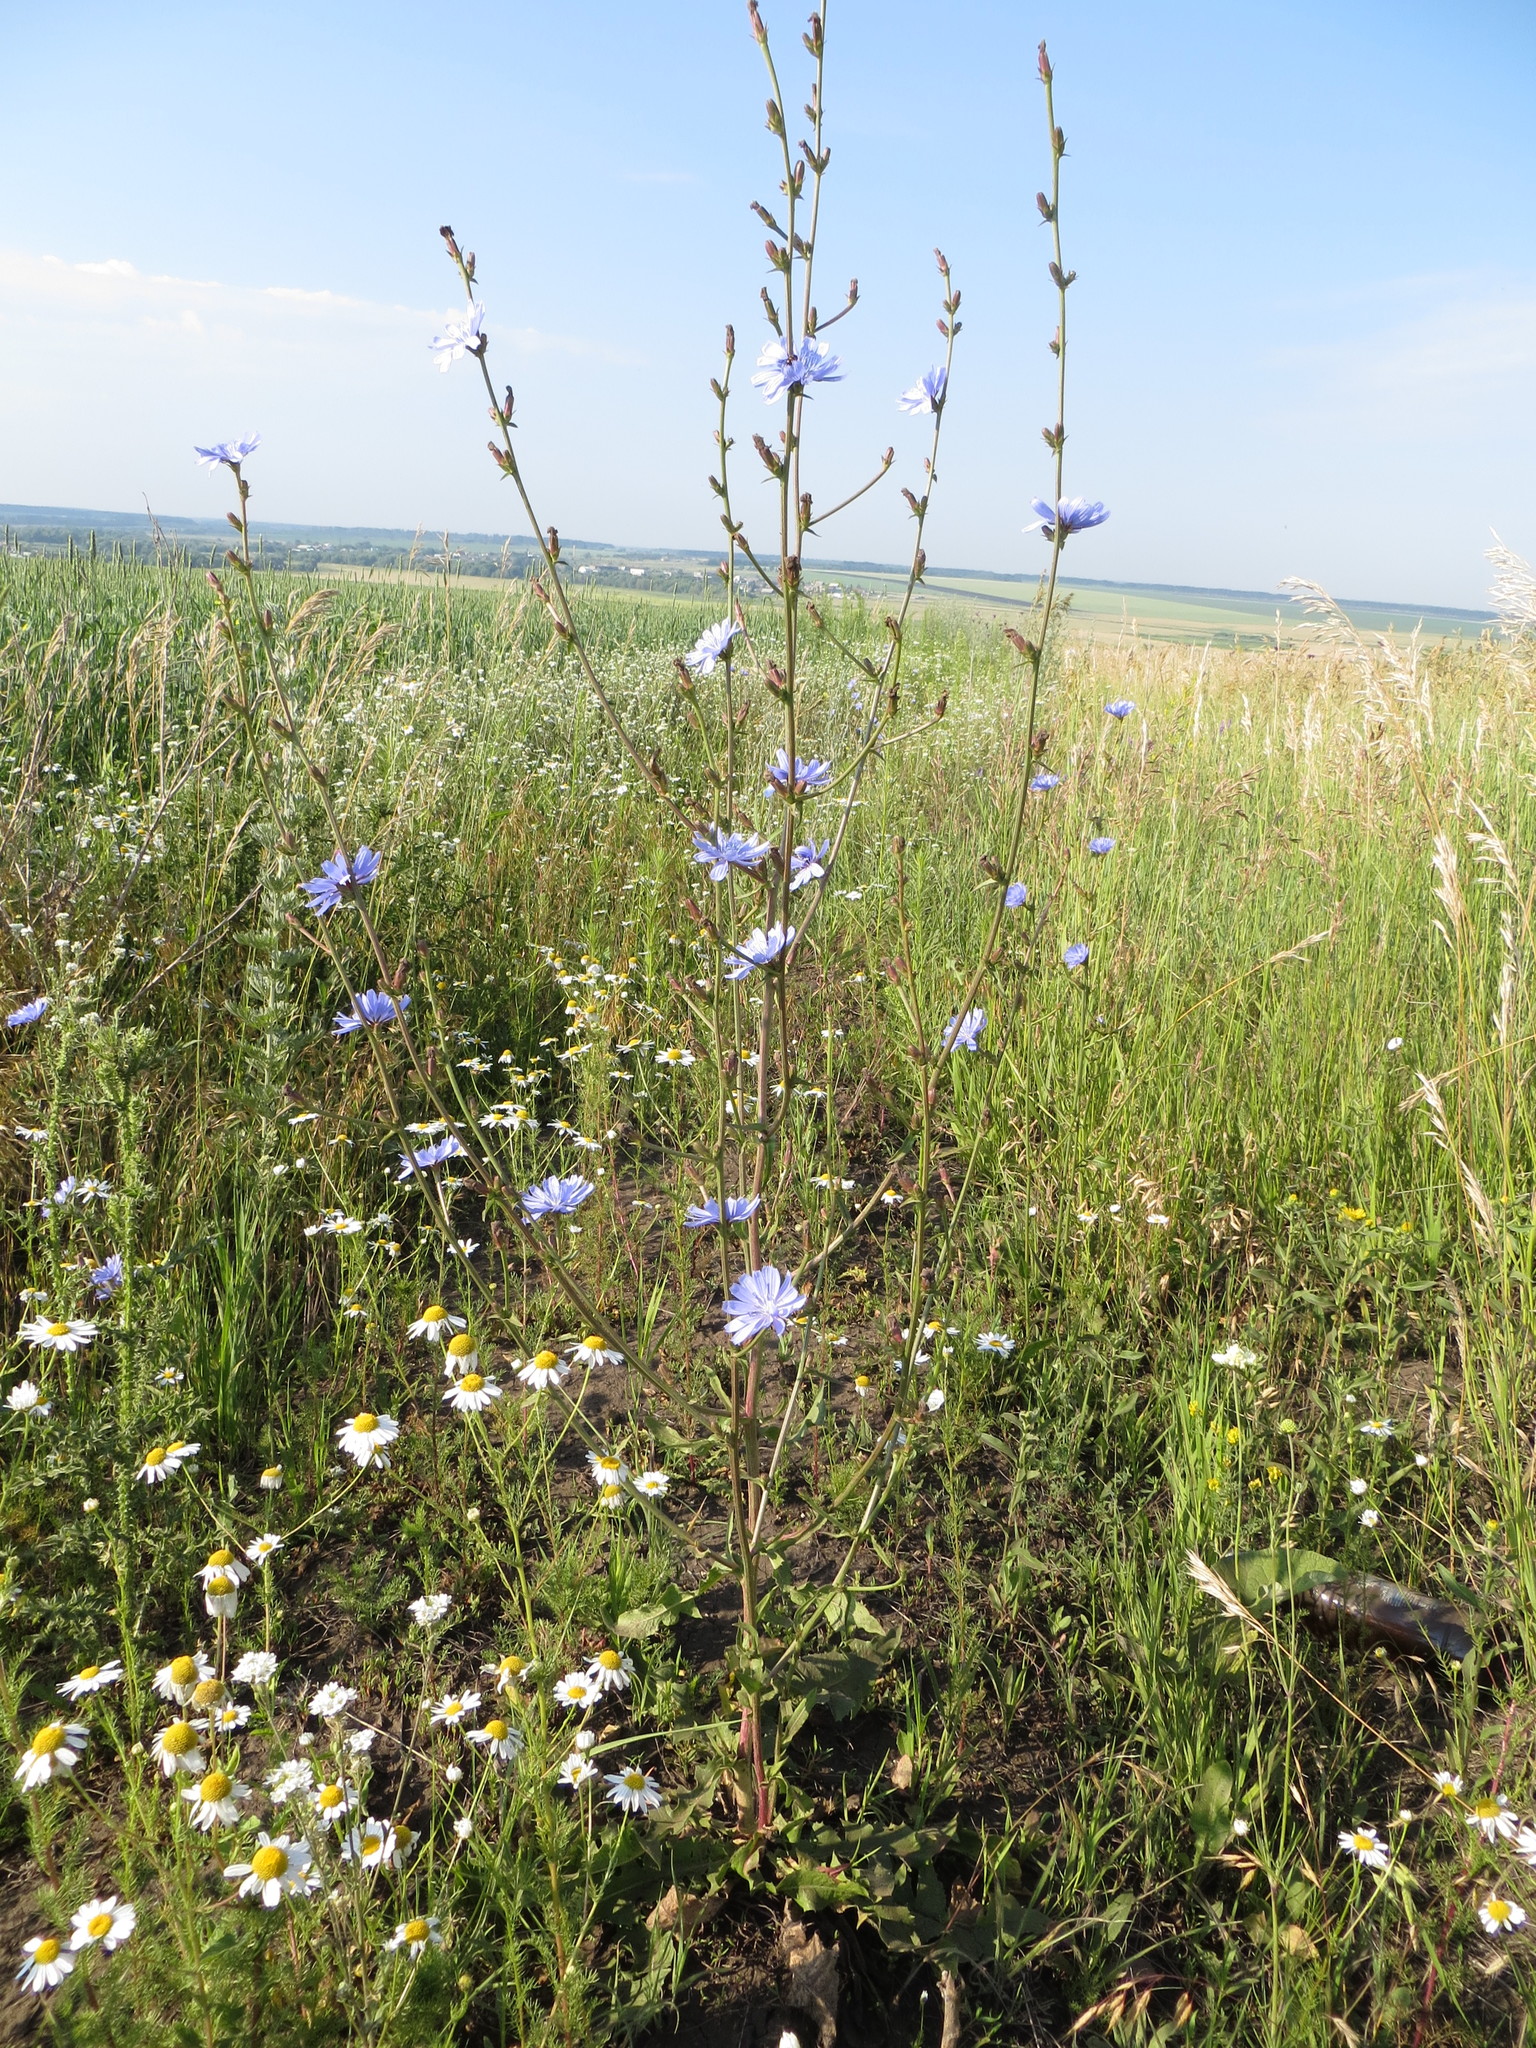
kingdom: Plantae
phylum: Tracheophyta
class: Magnoliopsida
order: Asterales
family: Asteraceae
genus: Cichorium
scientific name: Cichorium intybus
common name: Chicory
